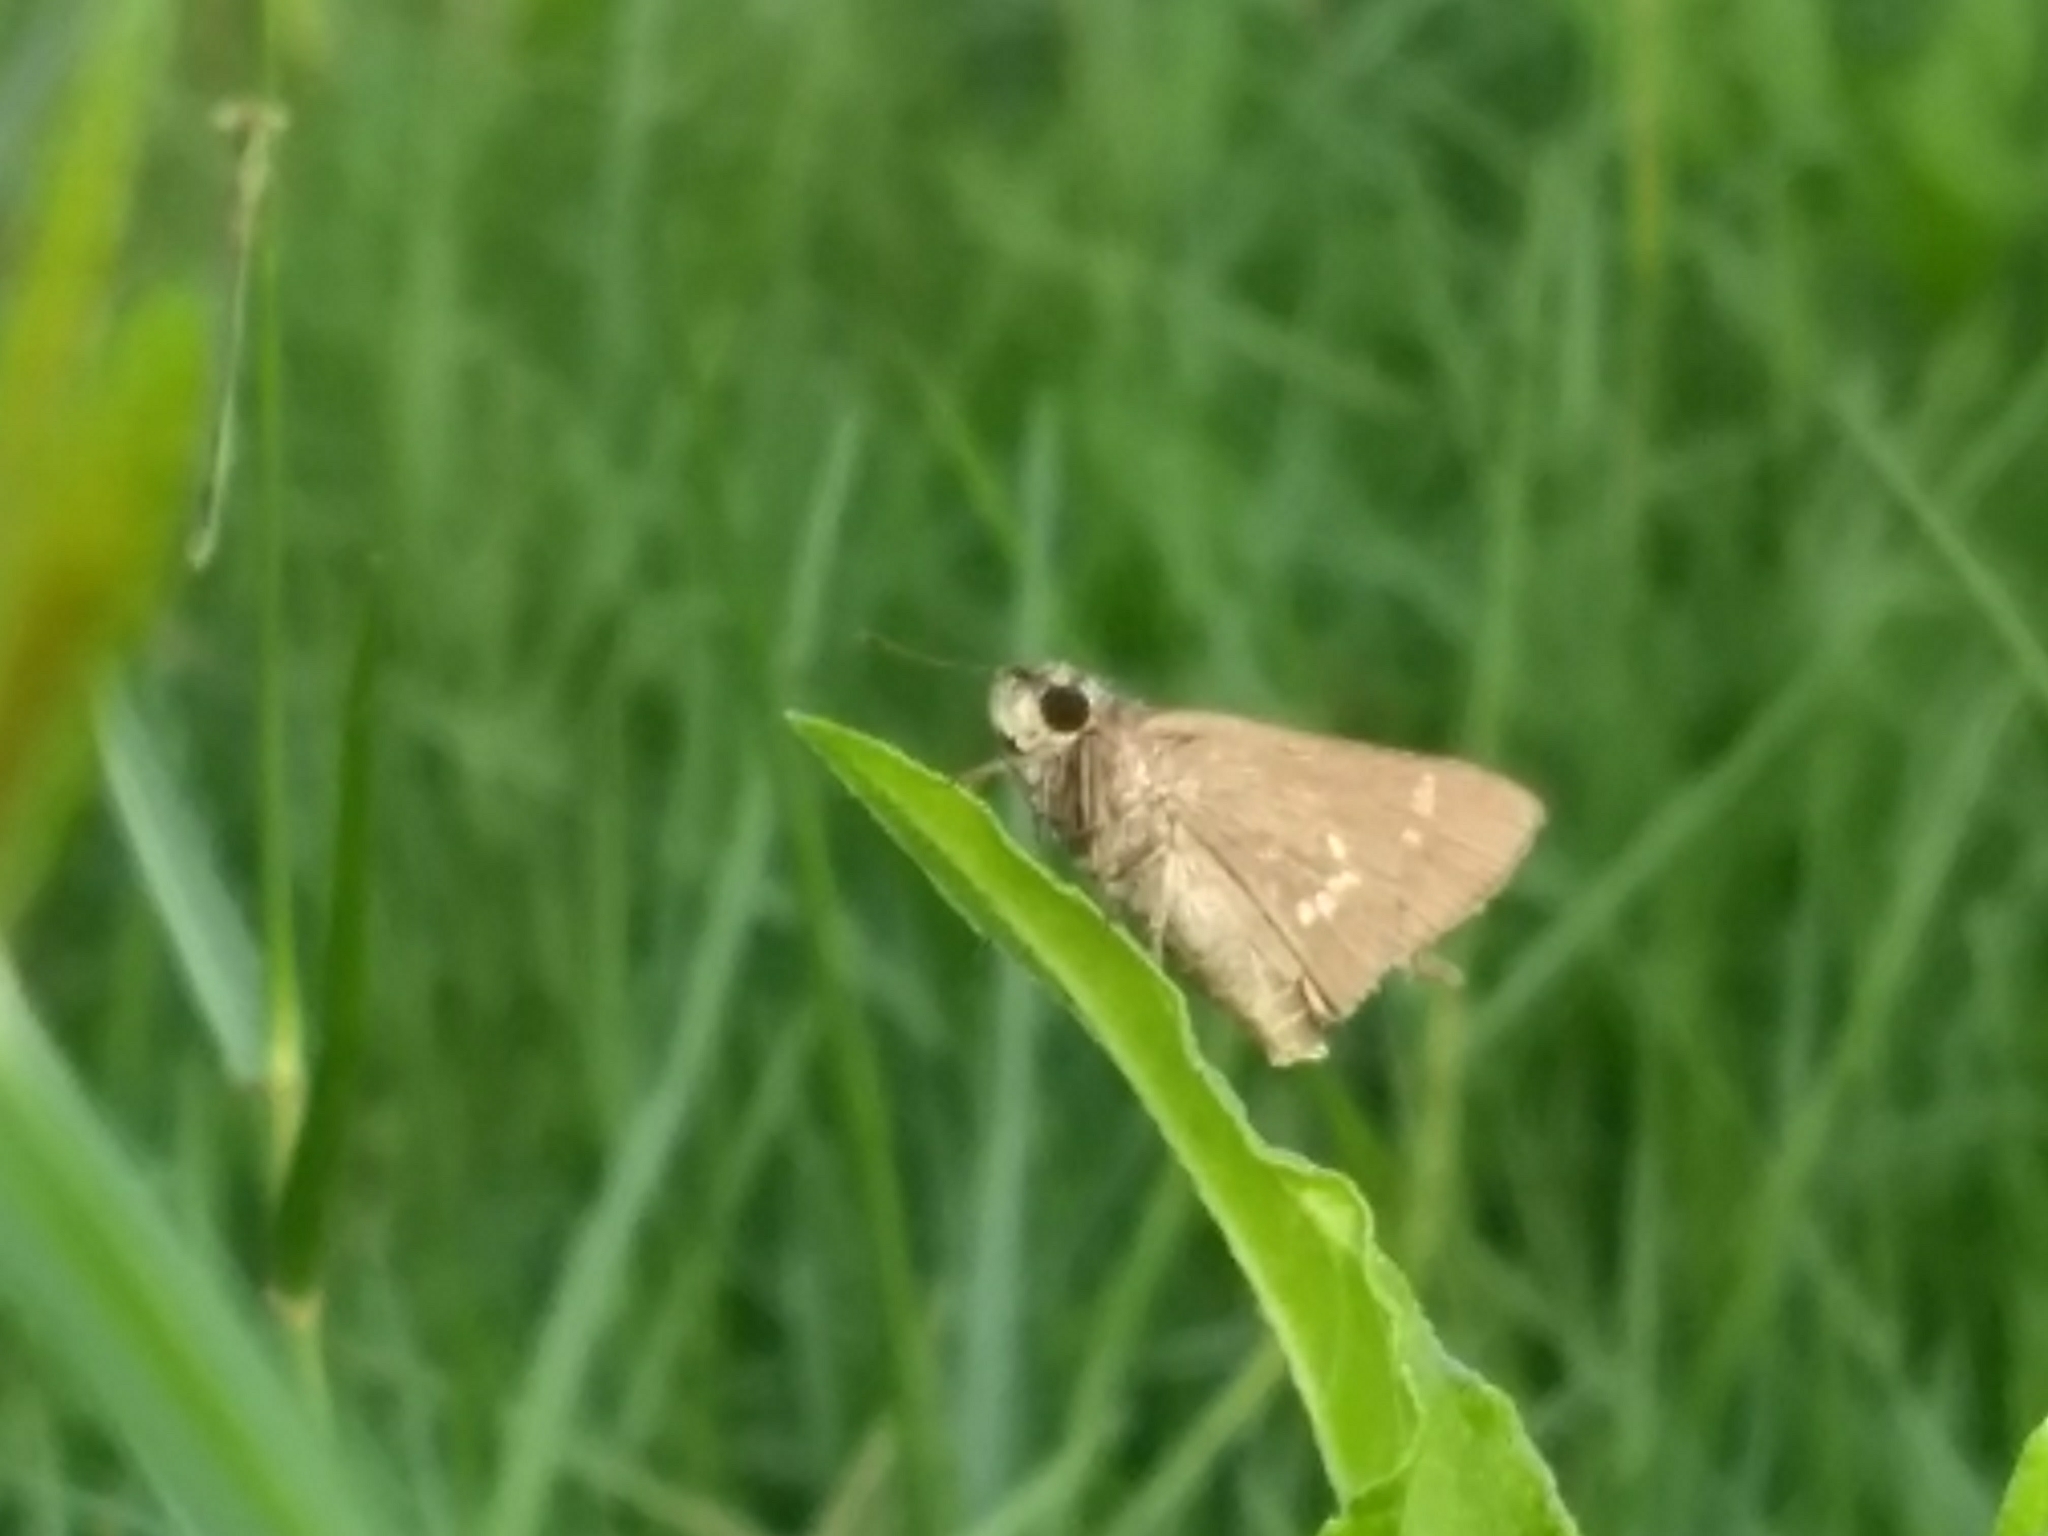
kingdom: Animalia
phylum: Arthropoda
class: Insecta
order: Lepidoptera
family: Hesperiidae
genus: Parnara
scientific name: Parnara naso
